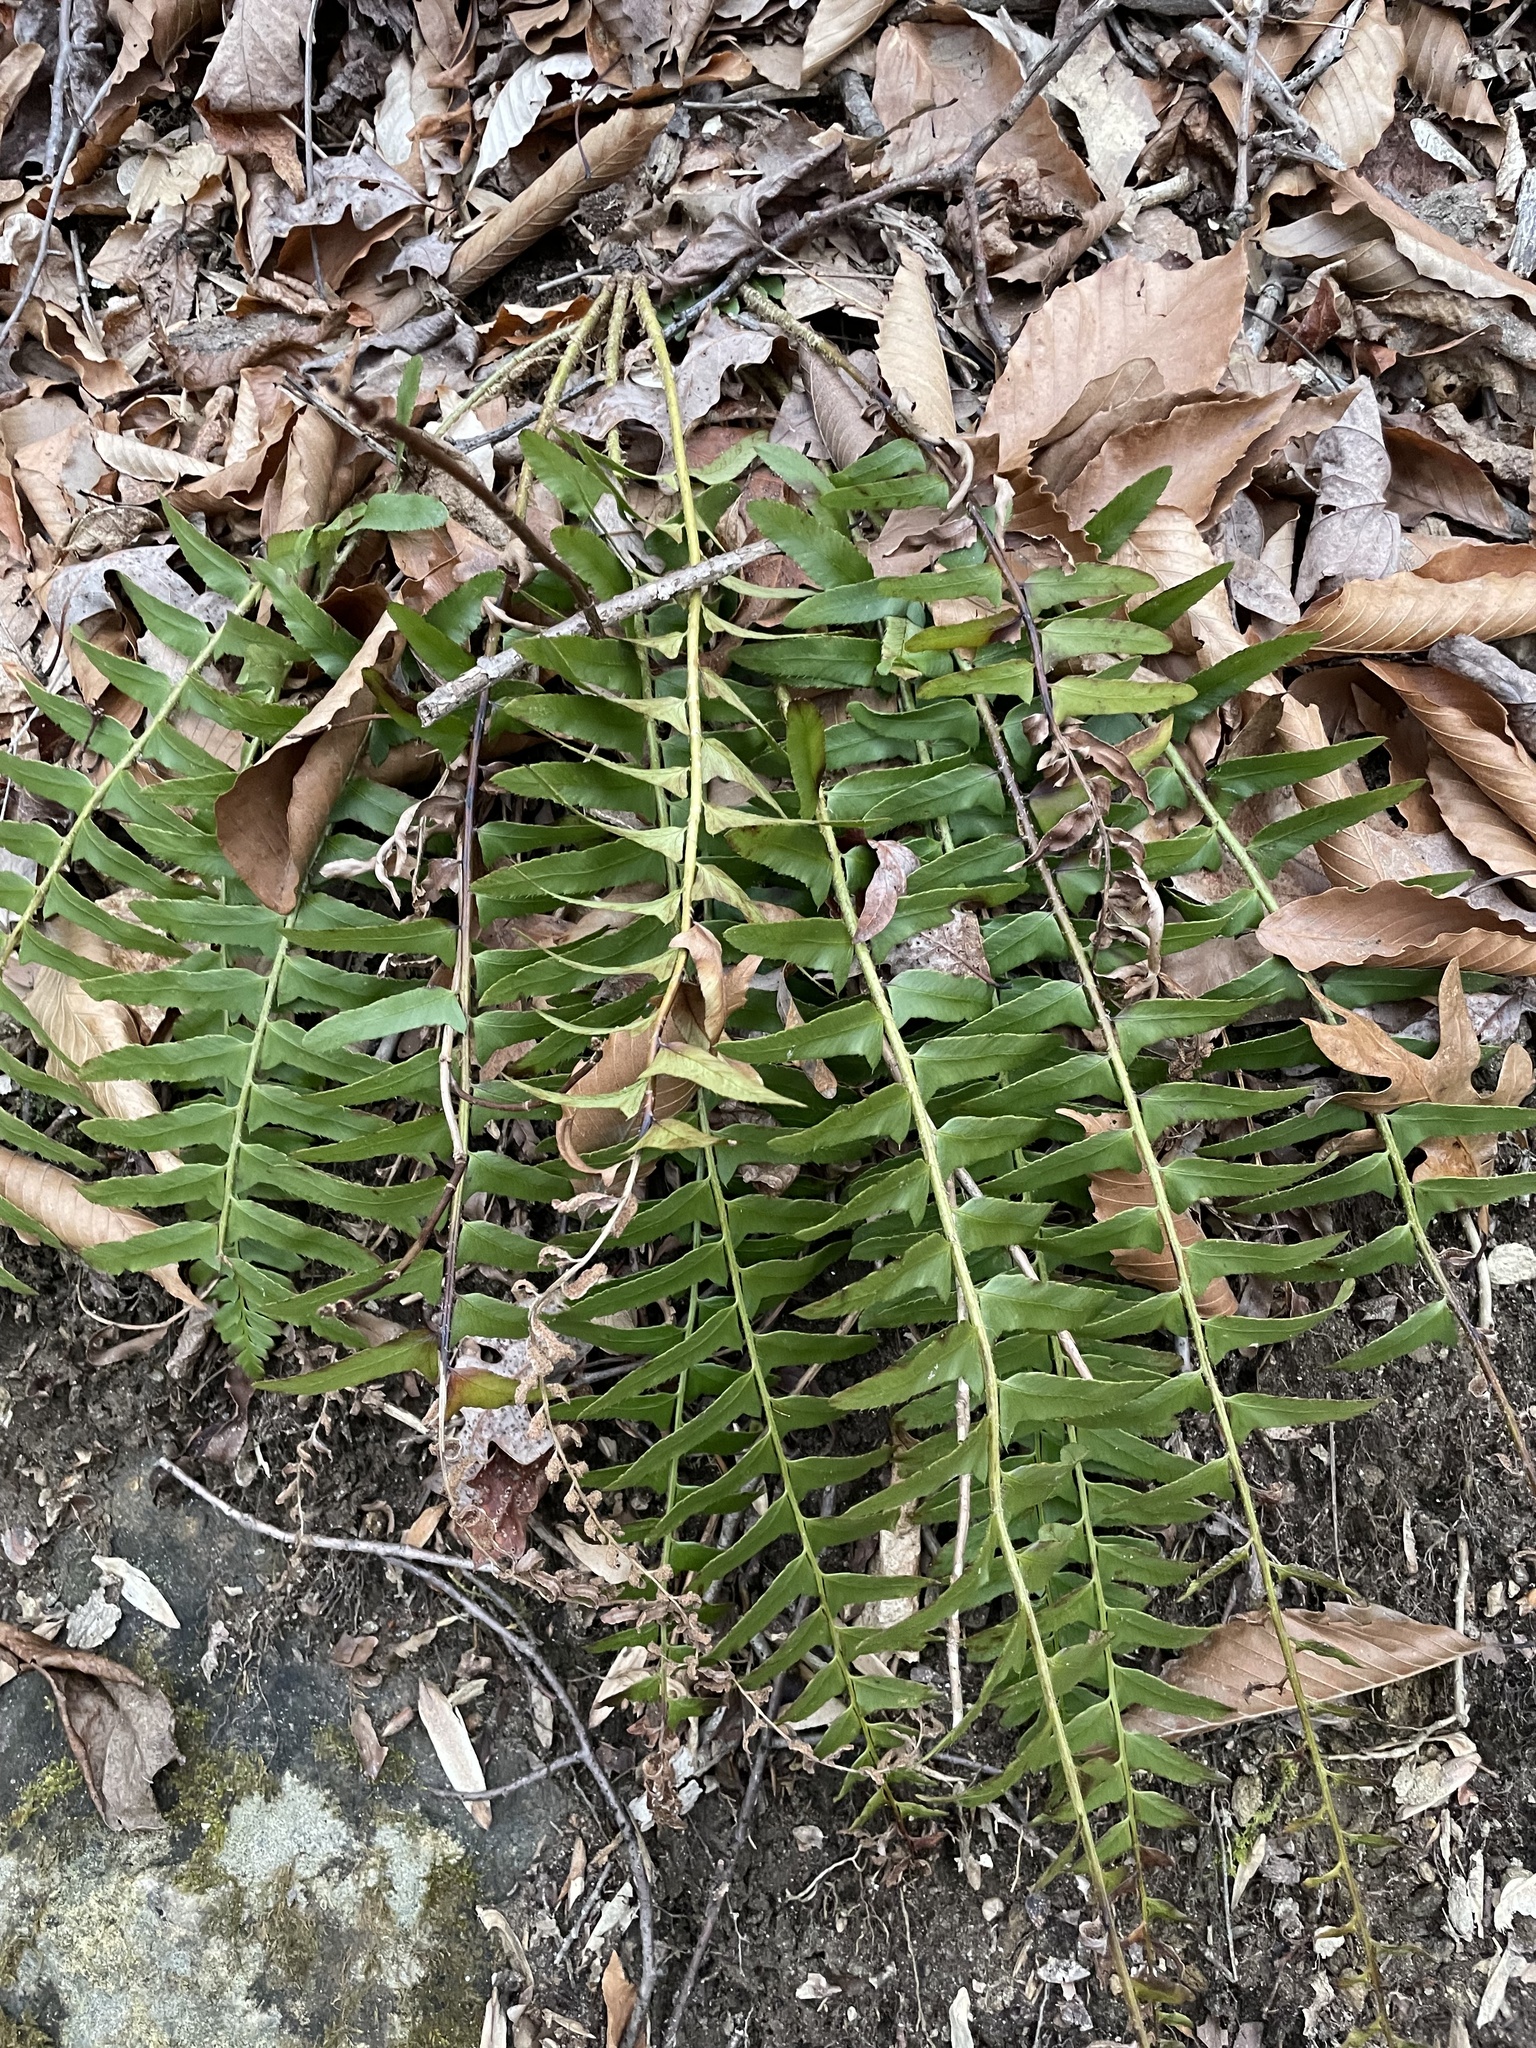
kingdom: Plantae
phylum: Tracheophyta
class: Polypodiopsida
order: Polypodiales
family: Dryopteridaceae
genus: Polystichum
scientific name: Polystichum acrostichoides
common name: Christmas fern
